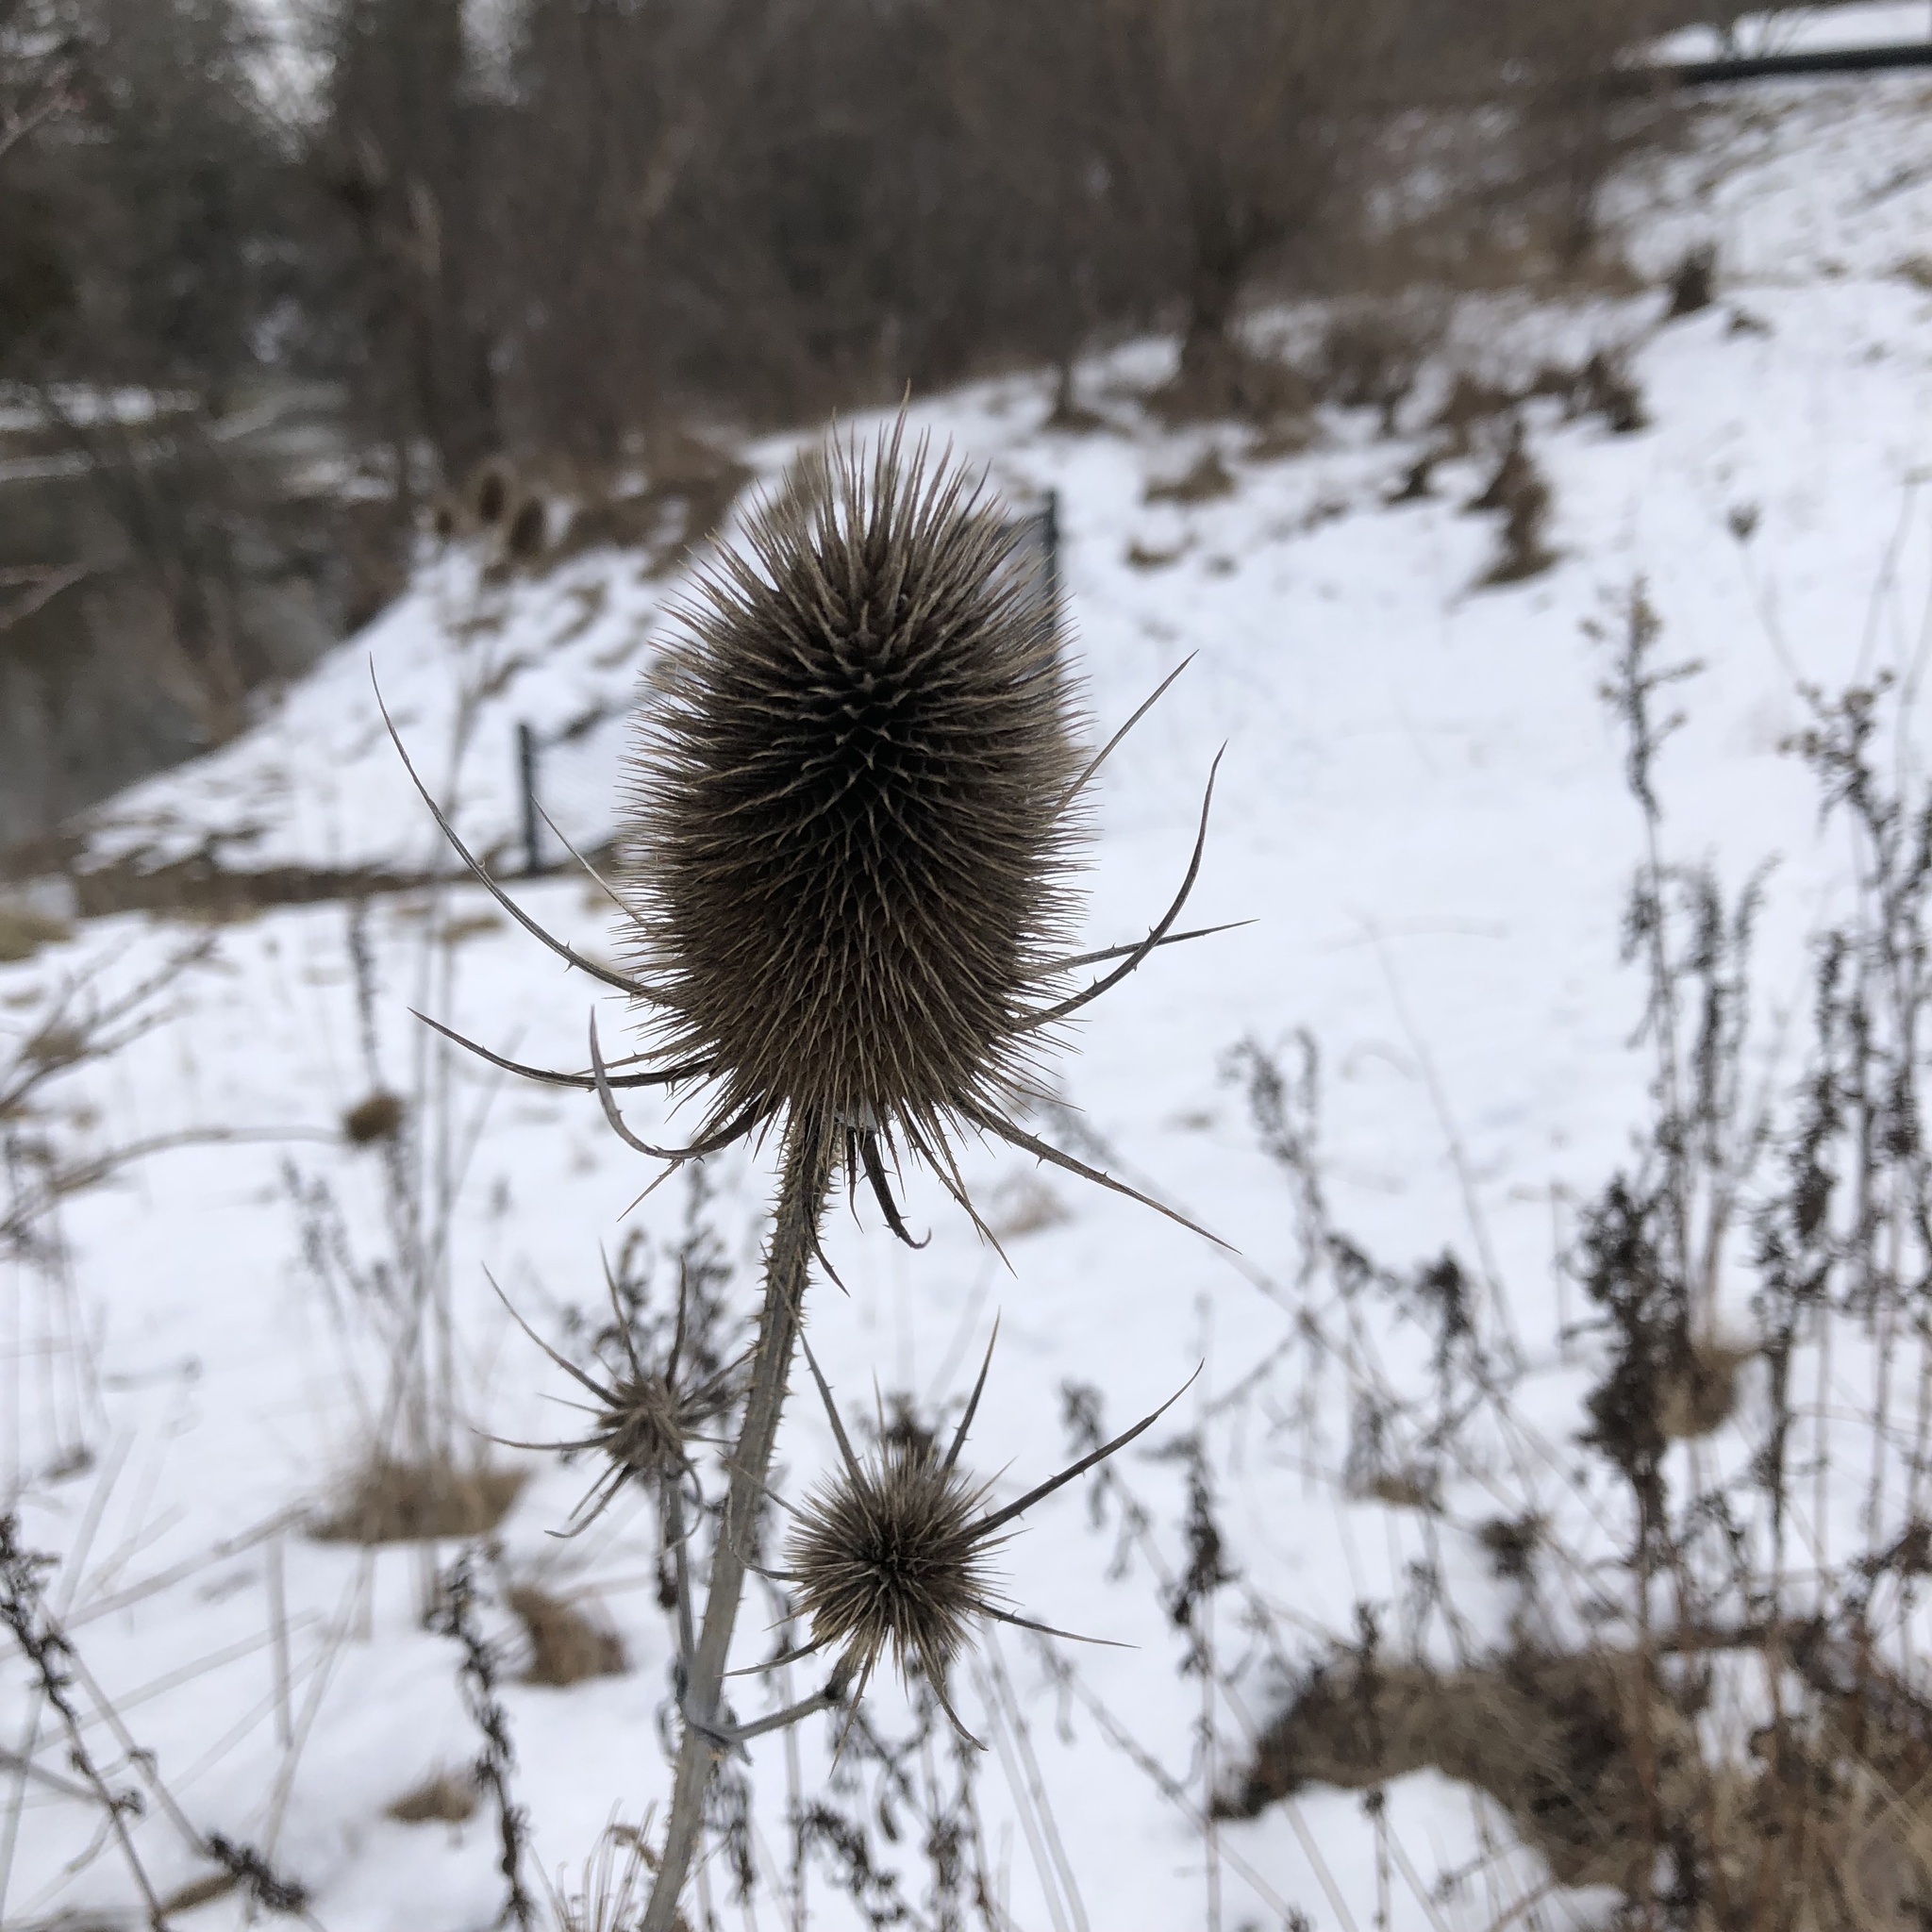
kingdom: Plantae
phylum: Tracheophyta
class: Magnoliopsida
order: Dipsacales
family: Caprifoliaceae
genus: Dipsacus
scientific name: Dipsacus fullonum
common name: Teasel
